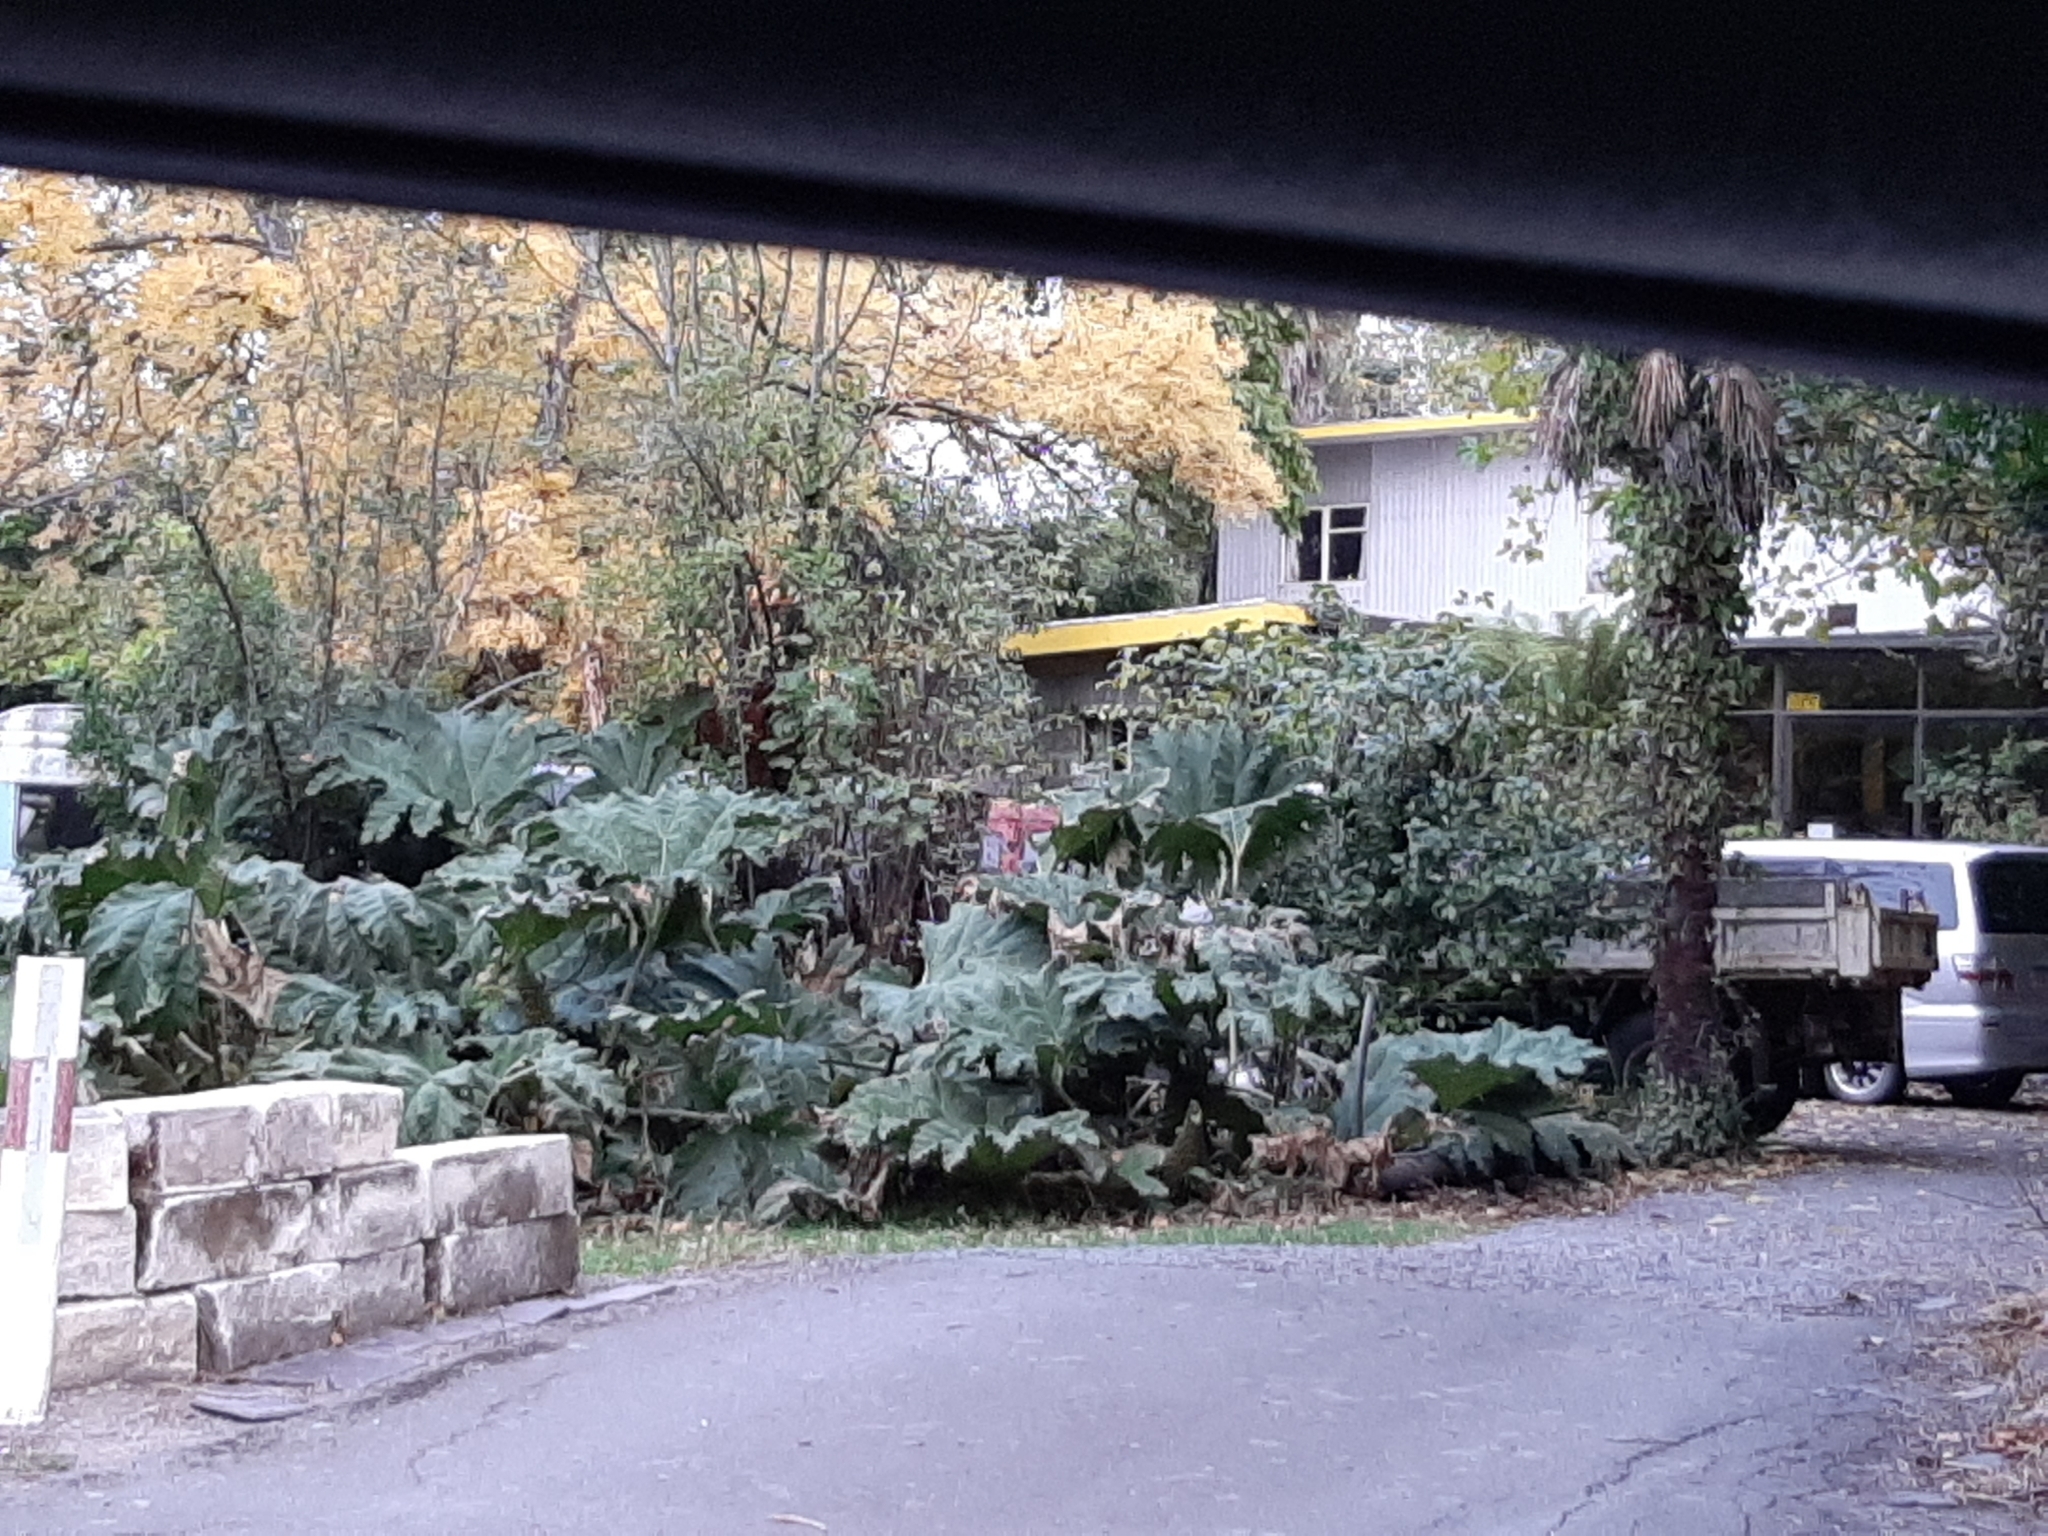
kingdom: Plantae
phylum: Tracheophyta
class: Magnoliopsida
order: Gunnerales
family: Gunneraceae
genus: Gunnera
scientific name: Gunnera tinctoria
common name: Giant-rhubarb
